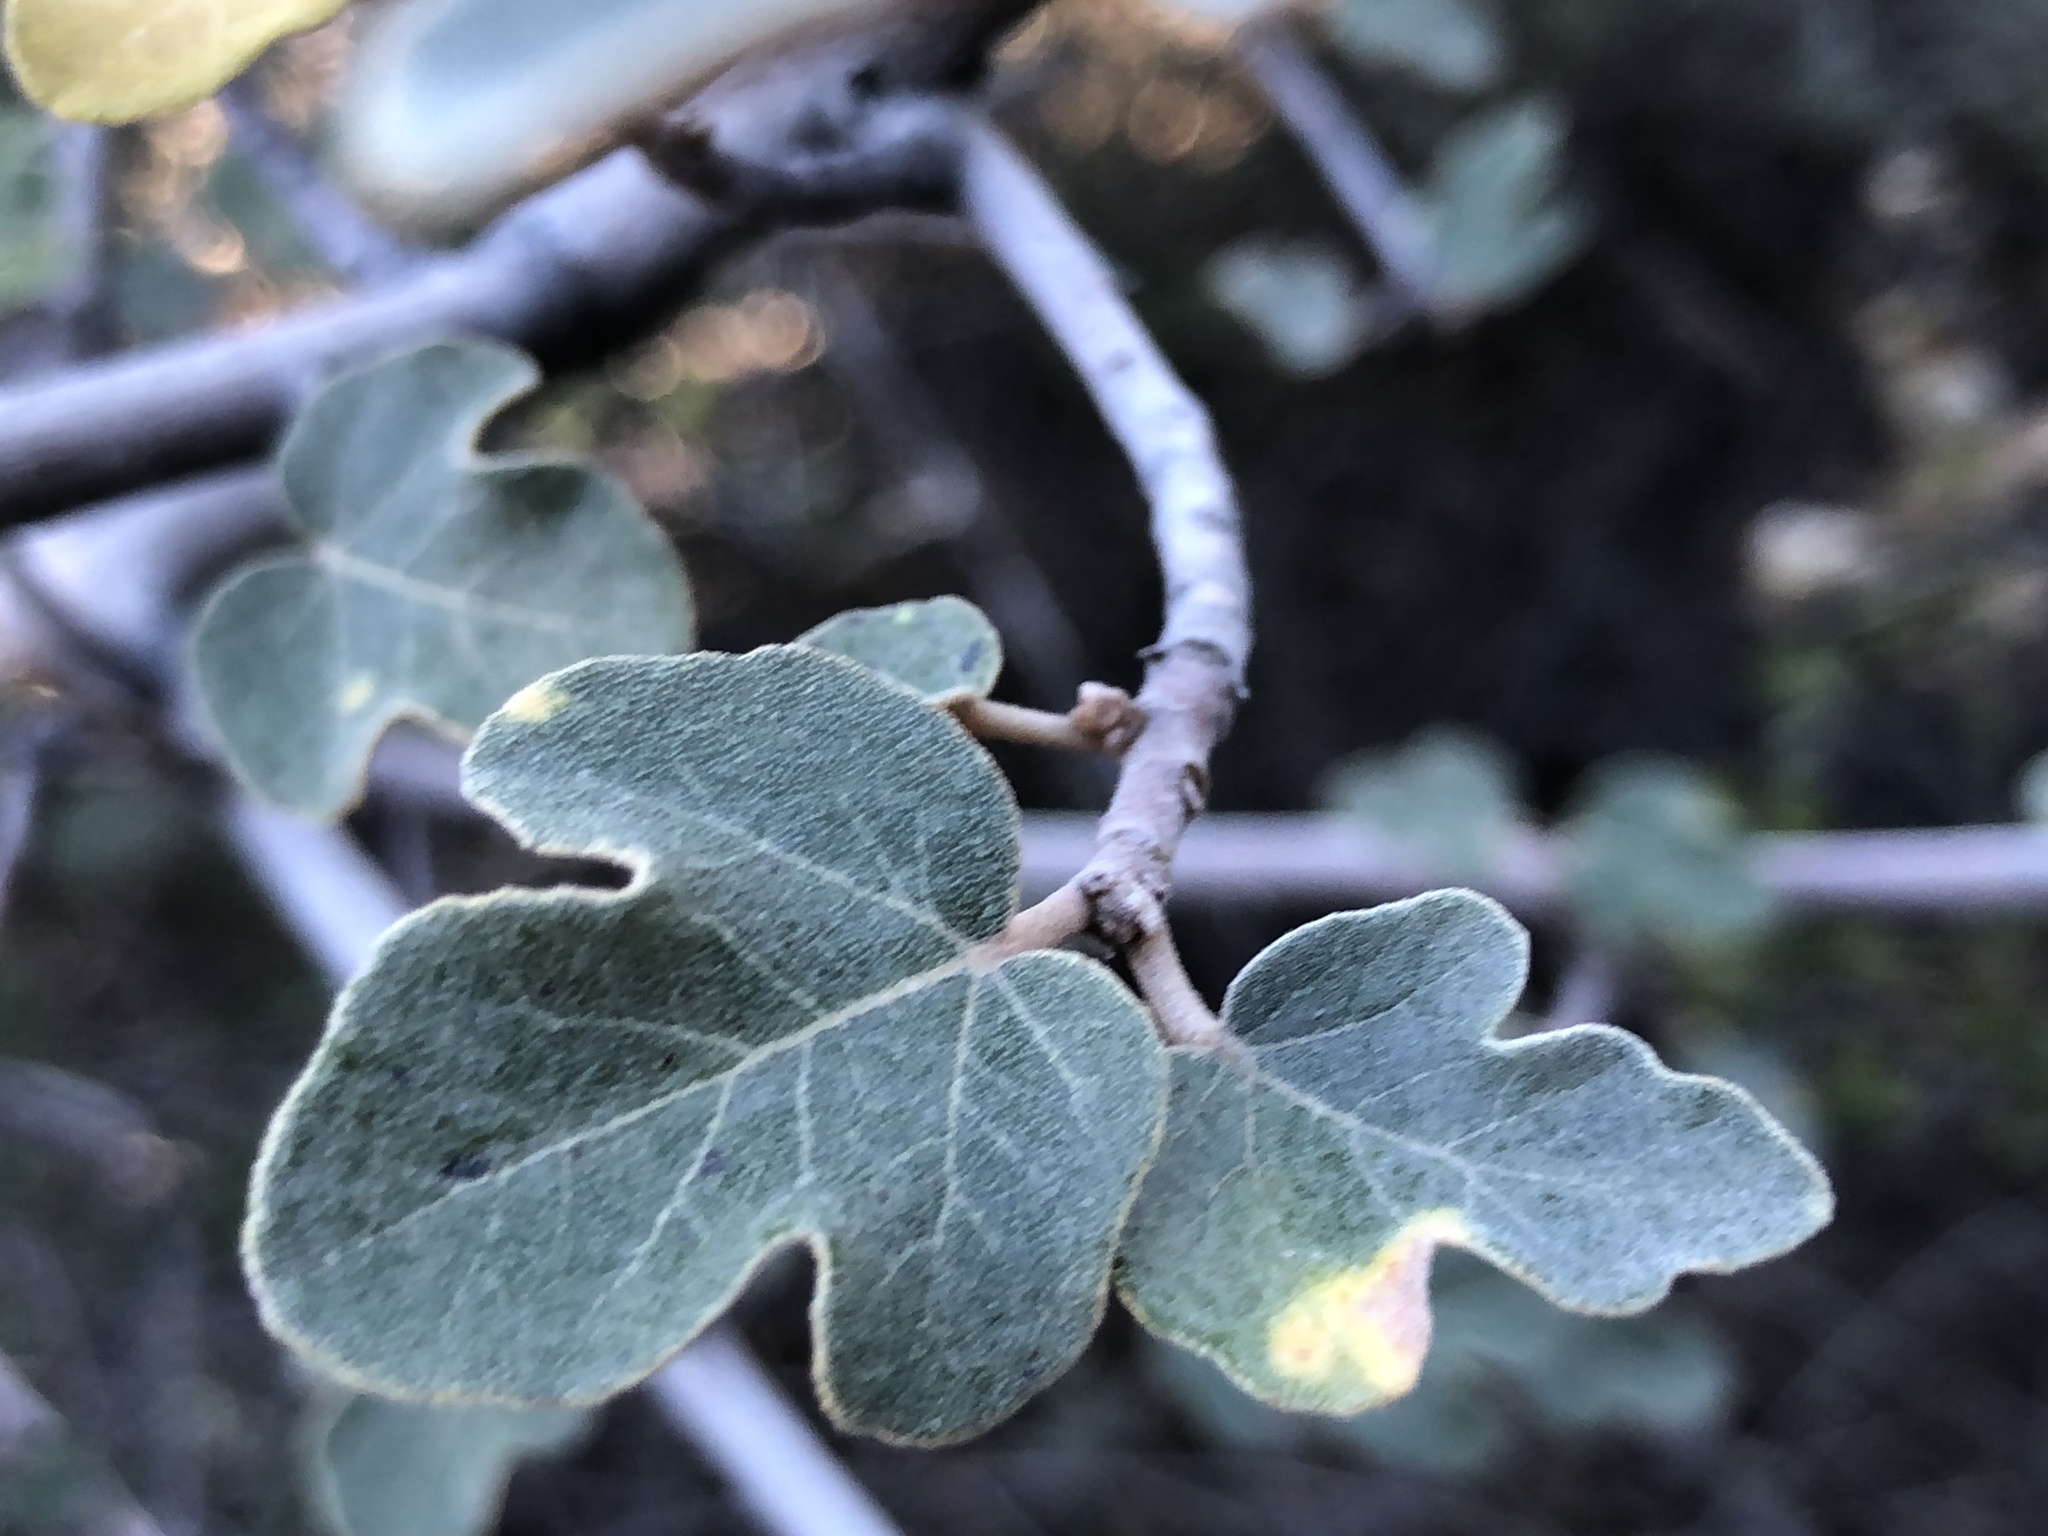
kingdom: Plantae
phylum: Tracheophyta
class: Magnoliopsida
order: Malvales
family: Malvaceae
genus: Fremontodendron
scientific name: Fremontodendron californicum
